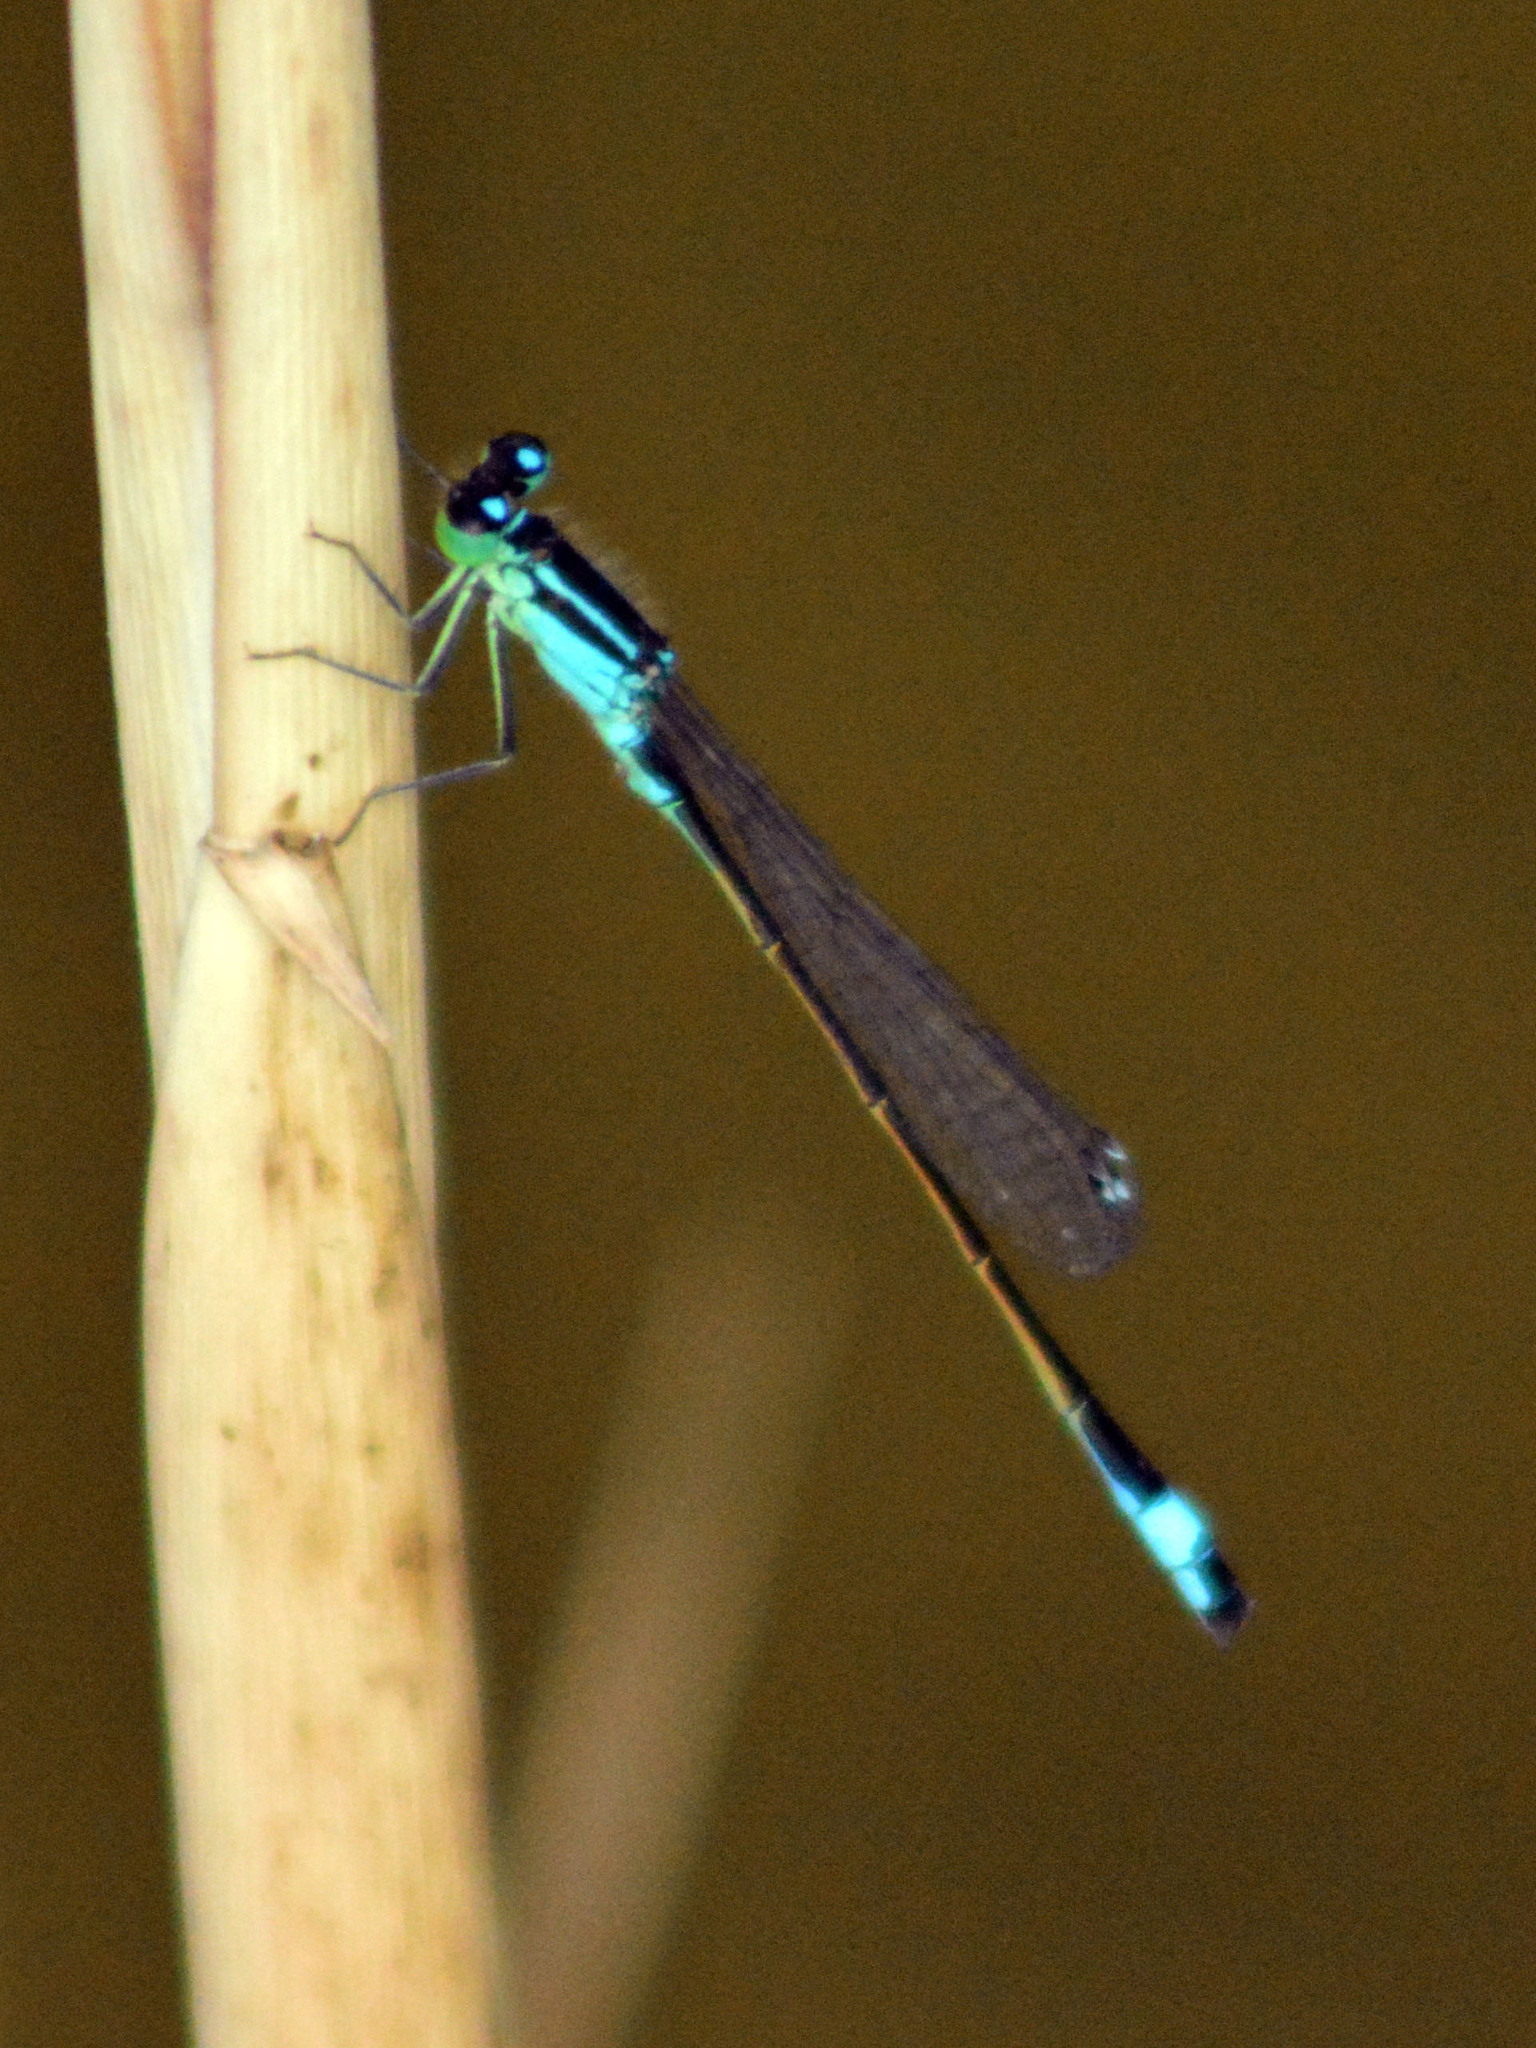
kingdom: Animalia
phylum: Arthropoda
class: Insecta
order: Odonata
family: Coenagrionidae
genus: Ischnura
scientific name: Ischnura elegans
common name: Blue-tailed damselfly
